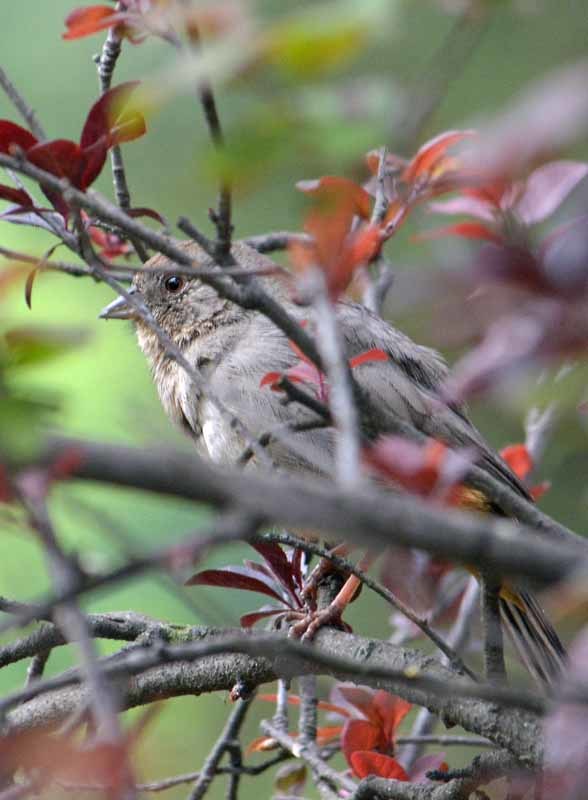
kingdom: Animalia
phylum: Chordata
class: Aves
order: Passeriformes
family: Passerellidae
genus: Melozone
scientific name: Melozone fusca
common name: Canyon towhee
